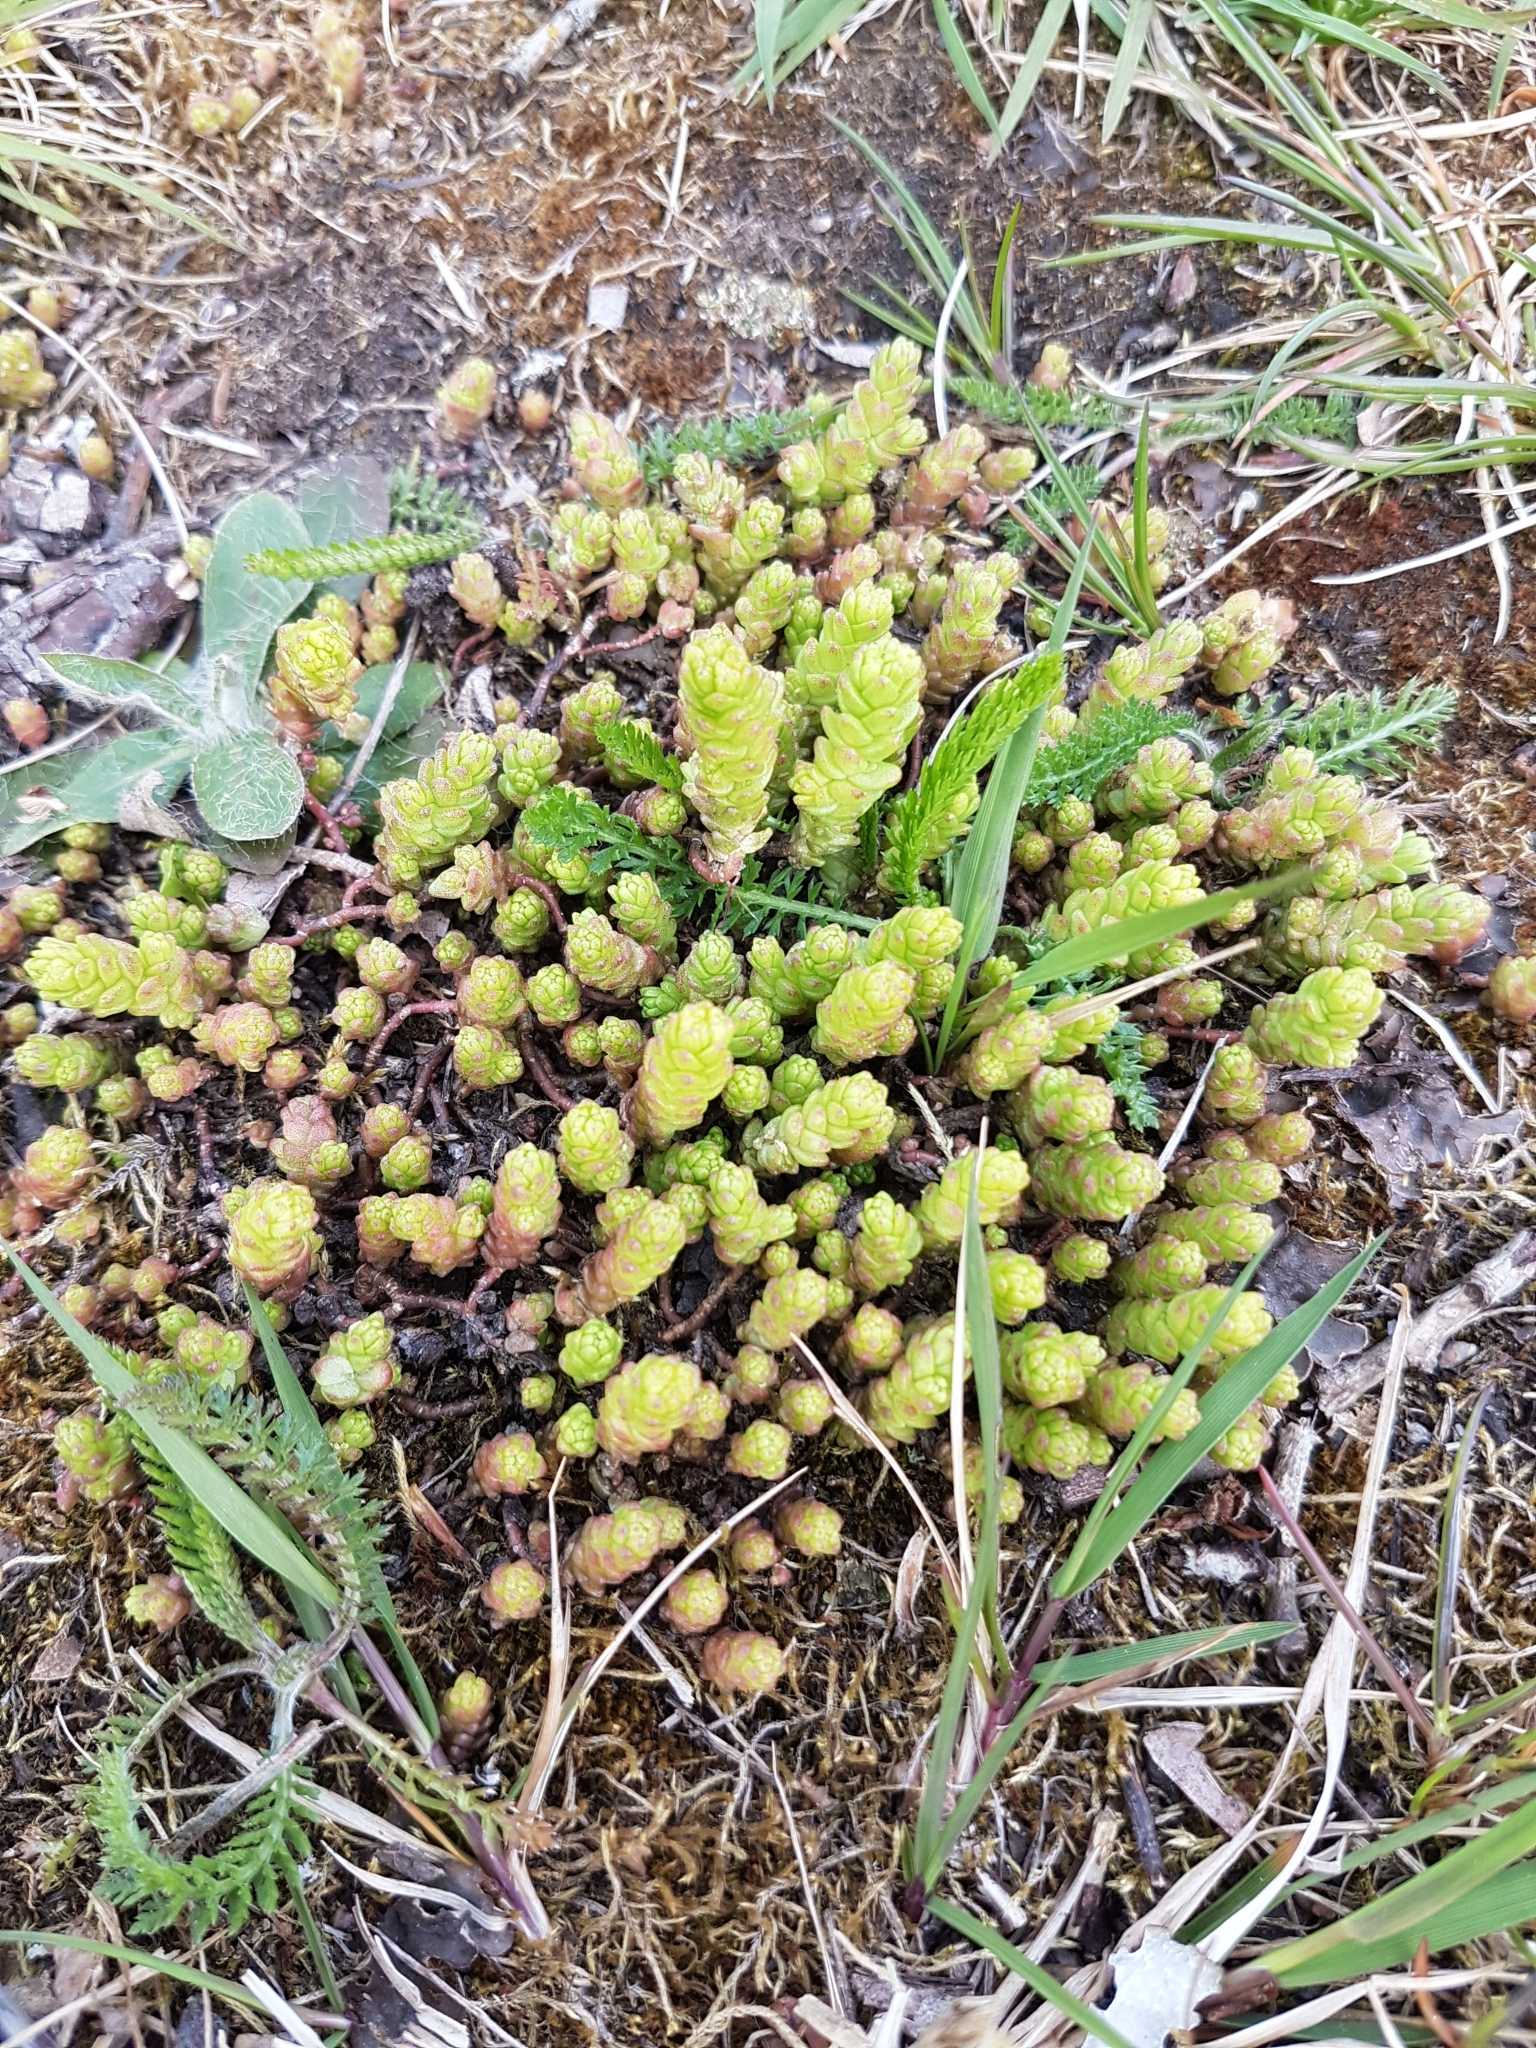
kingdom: Plantae
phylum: Tracheophyta
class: Magnoliopsida
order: Saxifragales
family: Crassulaceae
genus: Sedum
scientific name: Sedum acre
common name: Biting stonecrop
